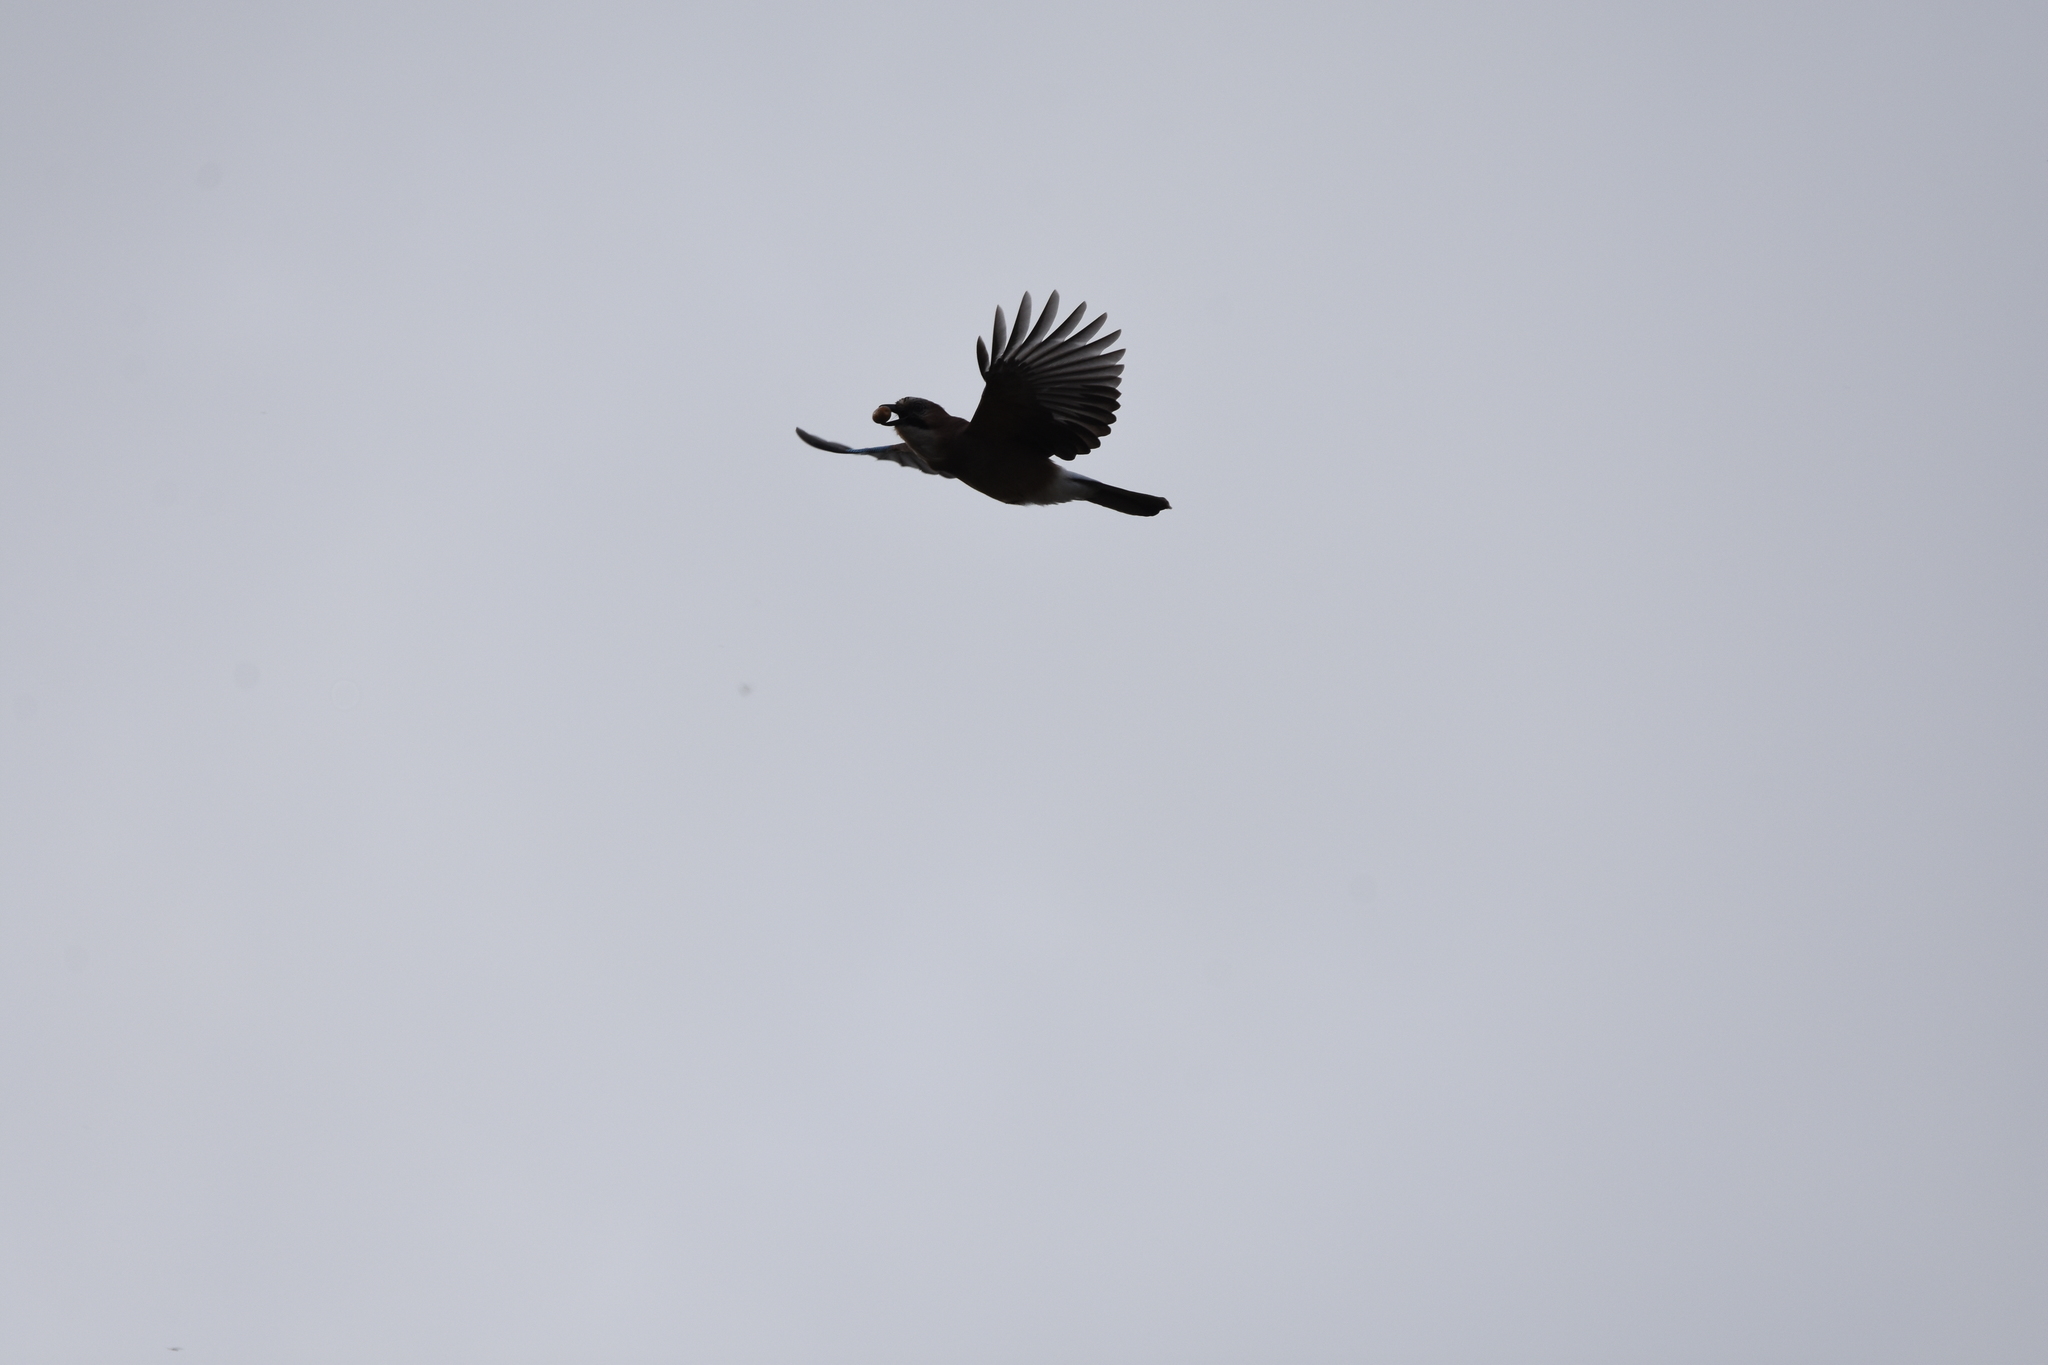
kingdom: Animalia
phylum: Chordata
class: Aves
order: Passeriformes
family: Corvidae
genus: Garrulus
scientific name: Garrulus glandarius
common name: Eurasian jay
